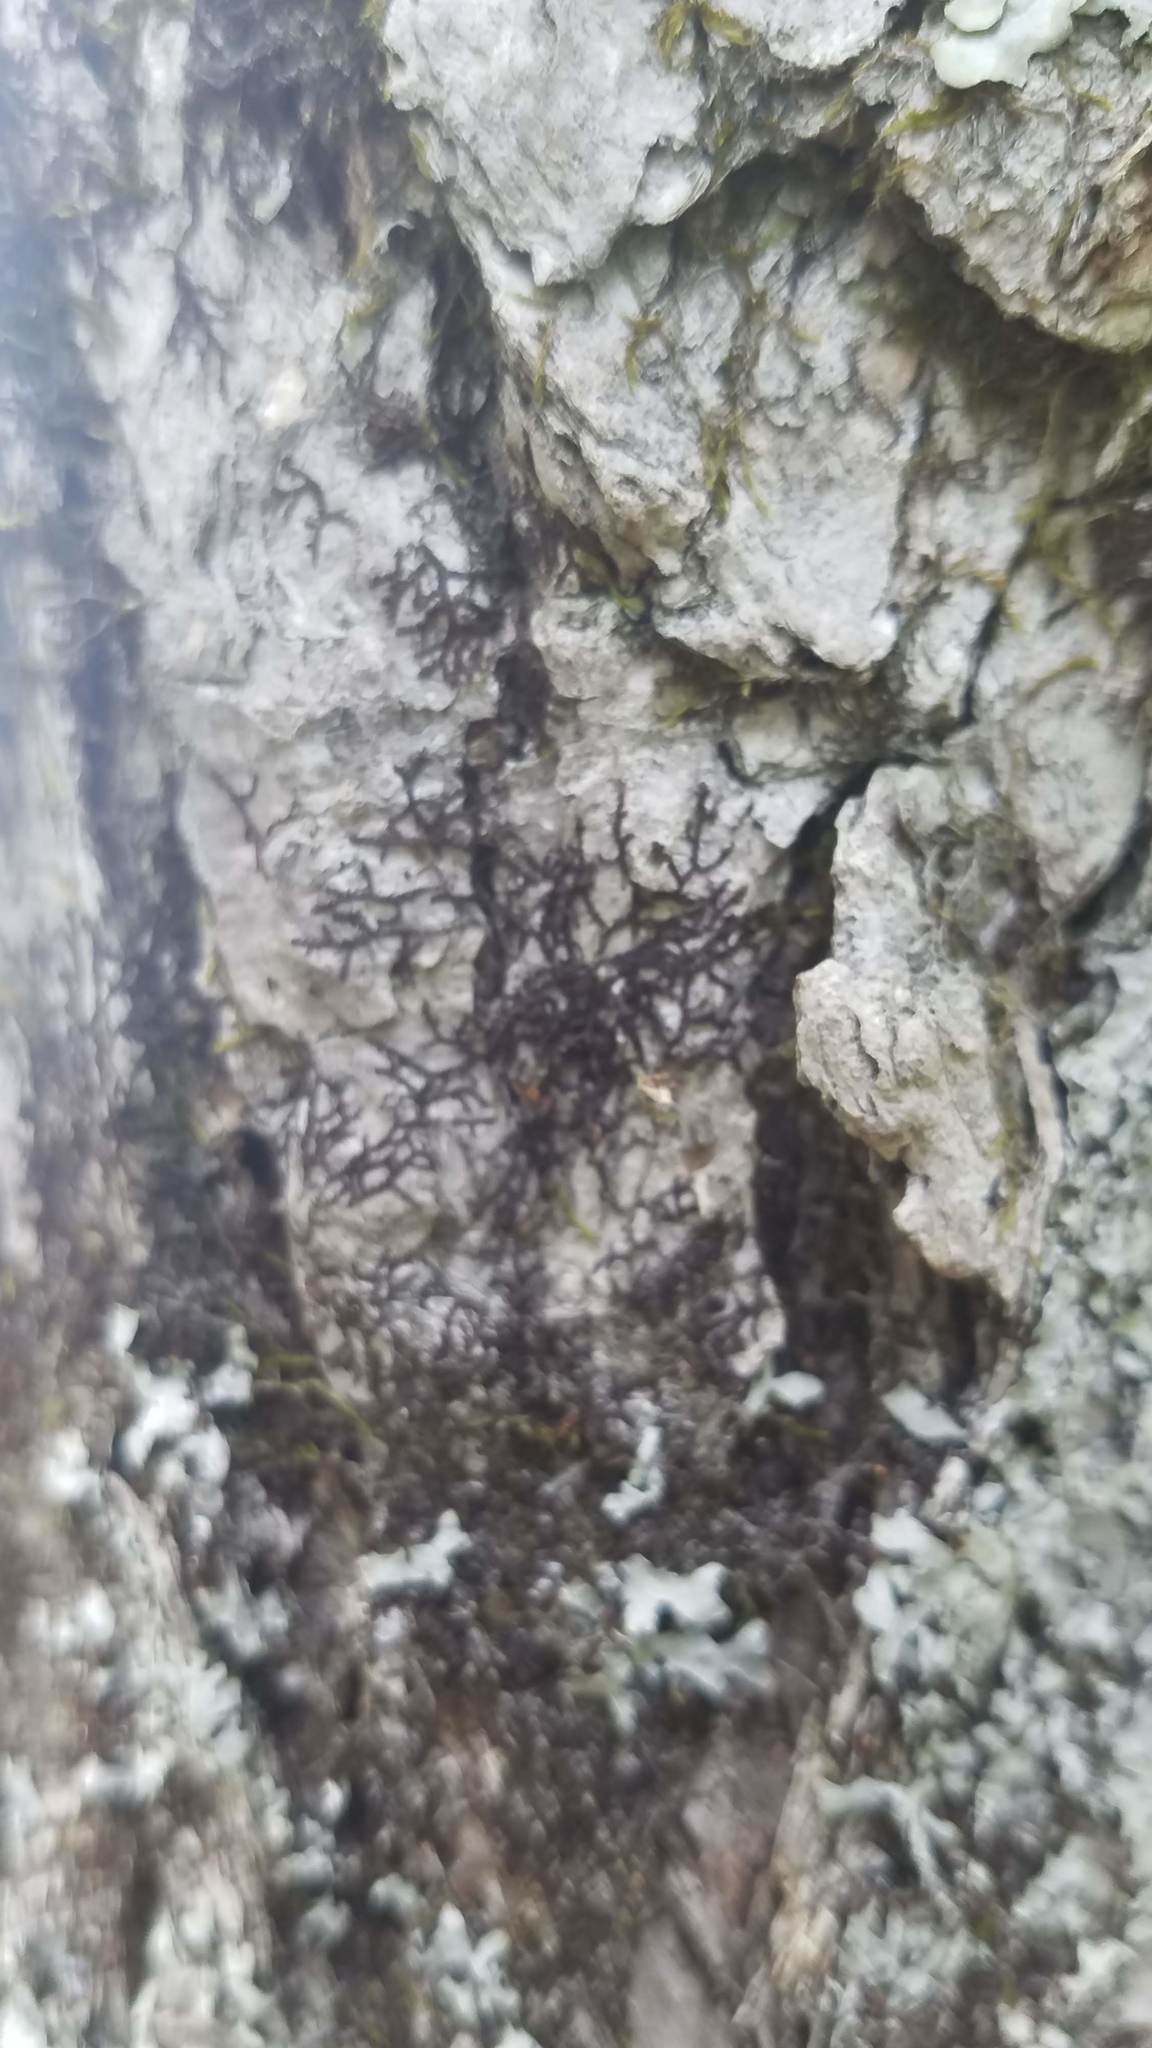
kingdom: Plantae
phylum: Marchantiophyta
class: Jungermanniopsida
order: Porellales
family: Frullaniaceae
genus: Frullania
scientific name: Frullania eboracensis
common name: New york scalewort
